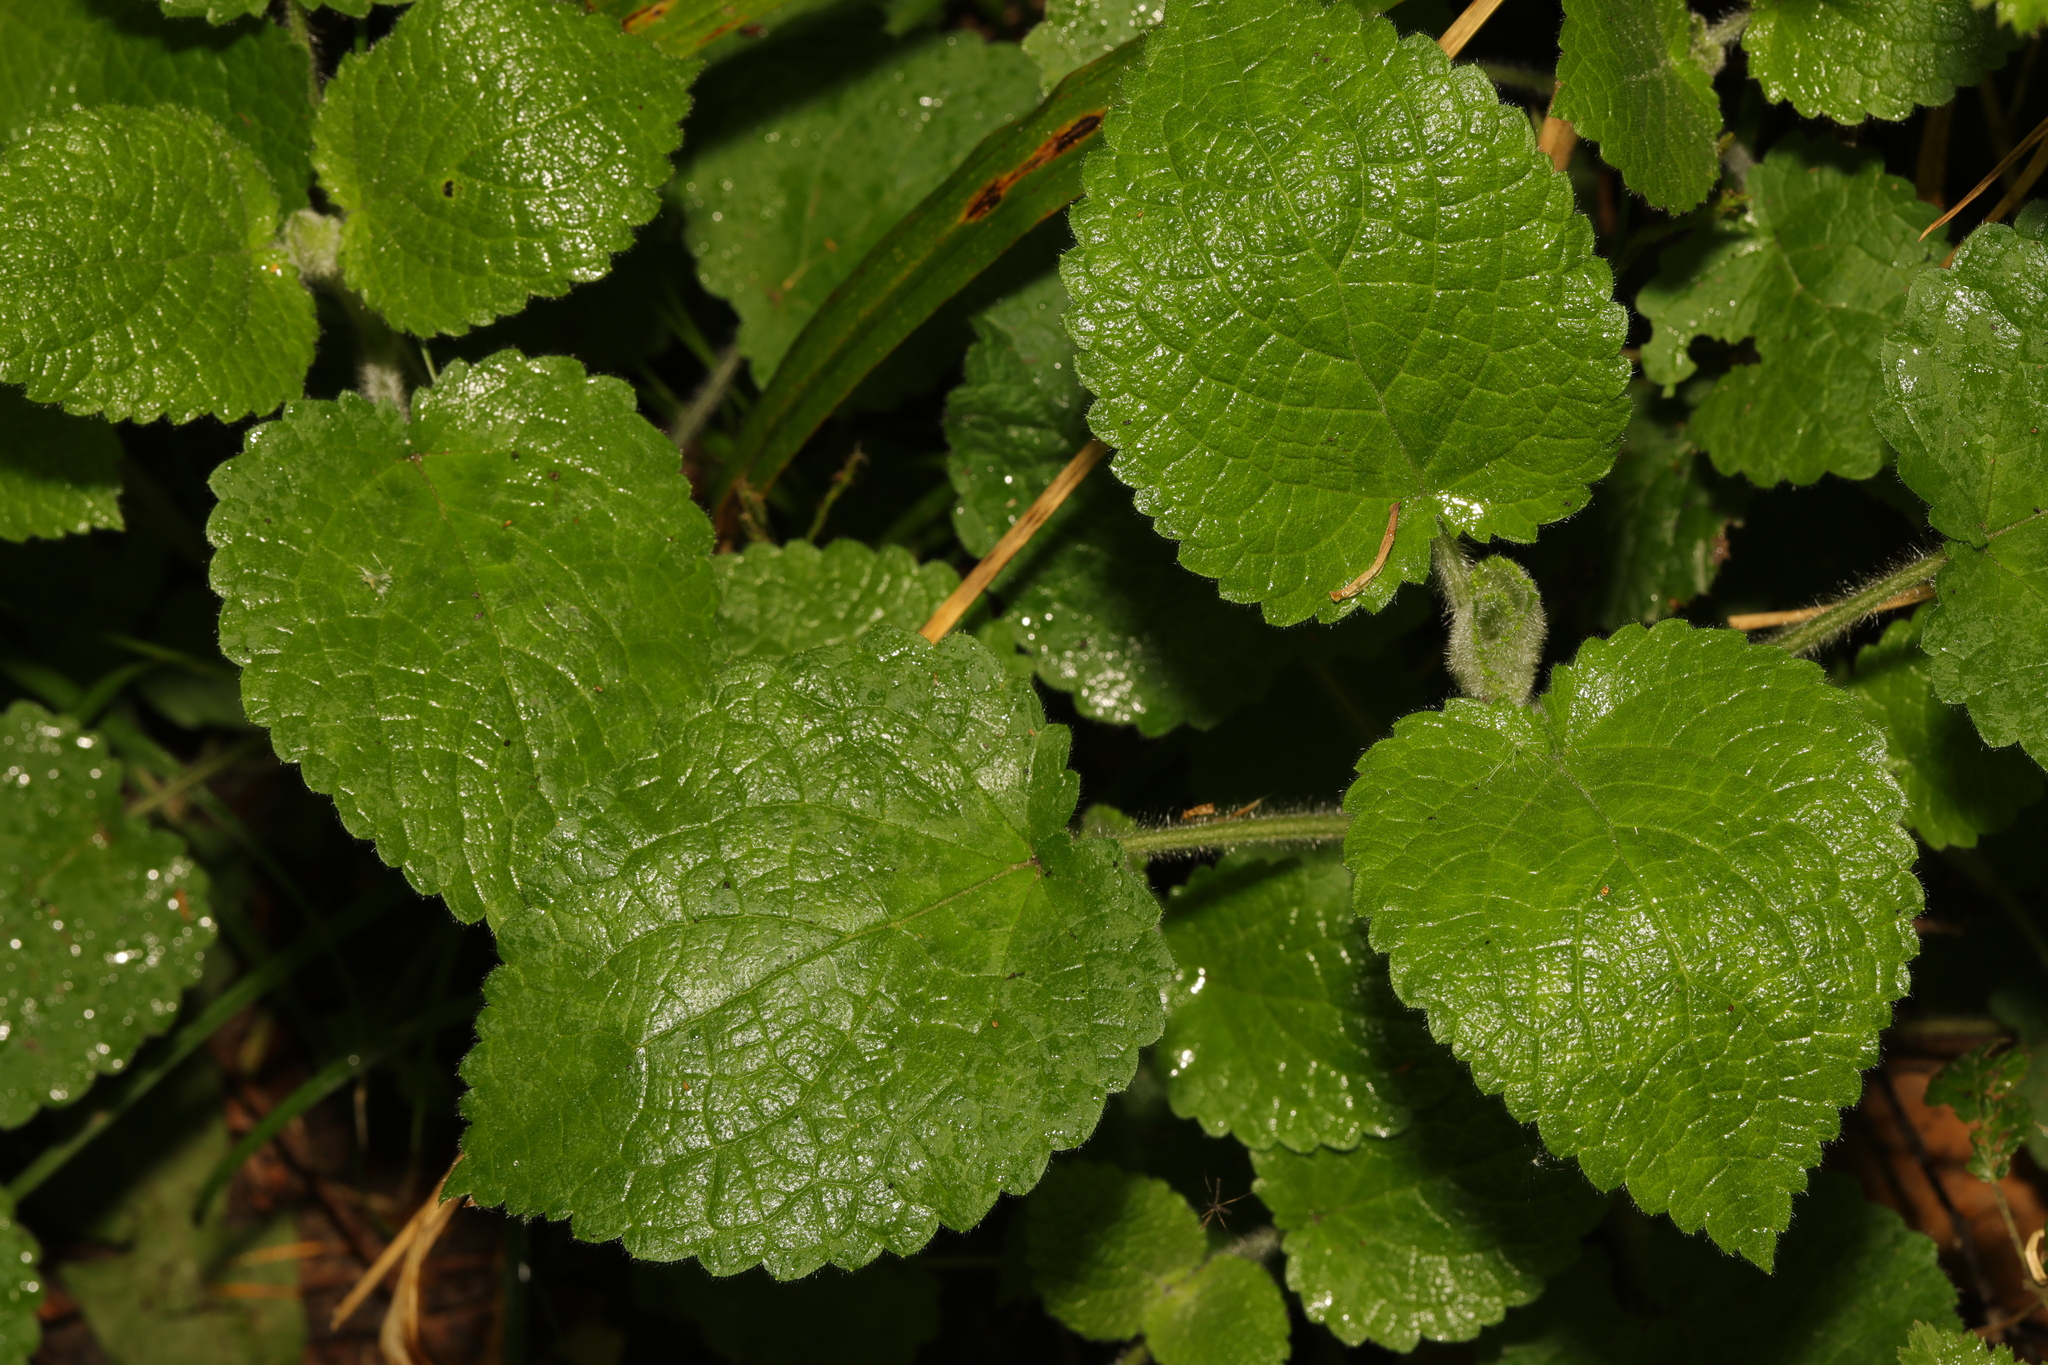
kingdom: Plantae
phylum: Tracheophyta
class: Magnoliopsida
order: Lamiales
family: Lamiaceae
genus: Stachys
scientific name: Stachys sylvatica
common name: Hedge woundwort
